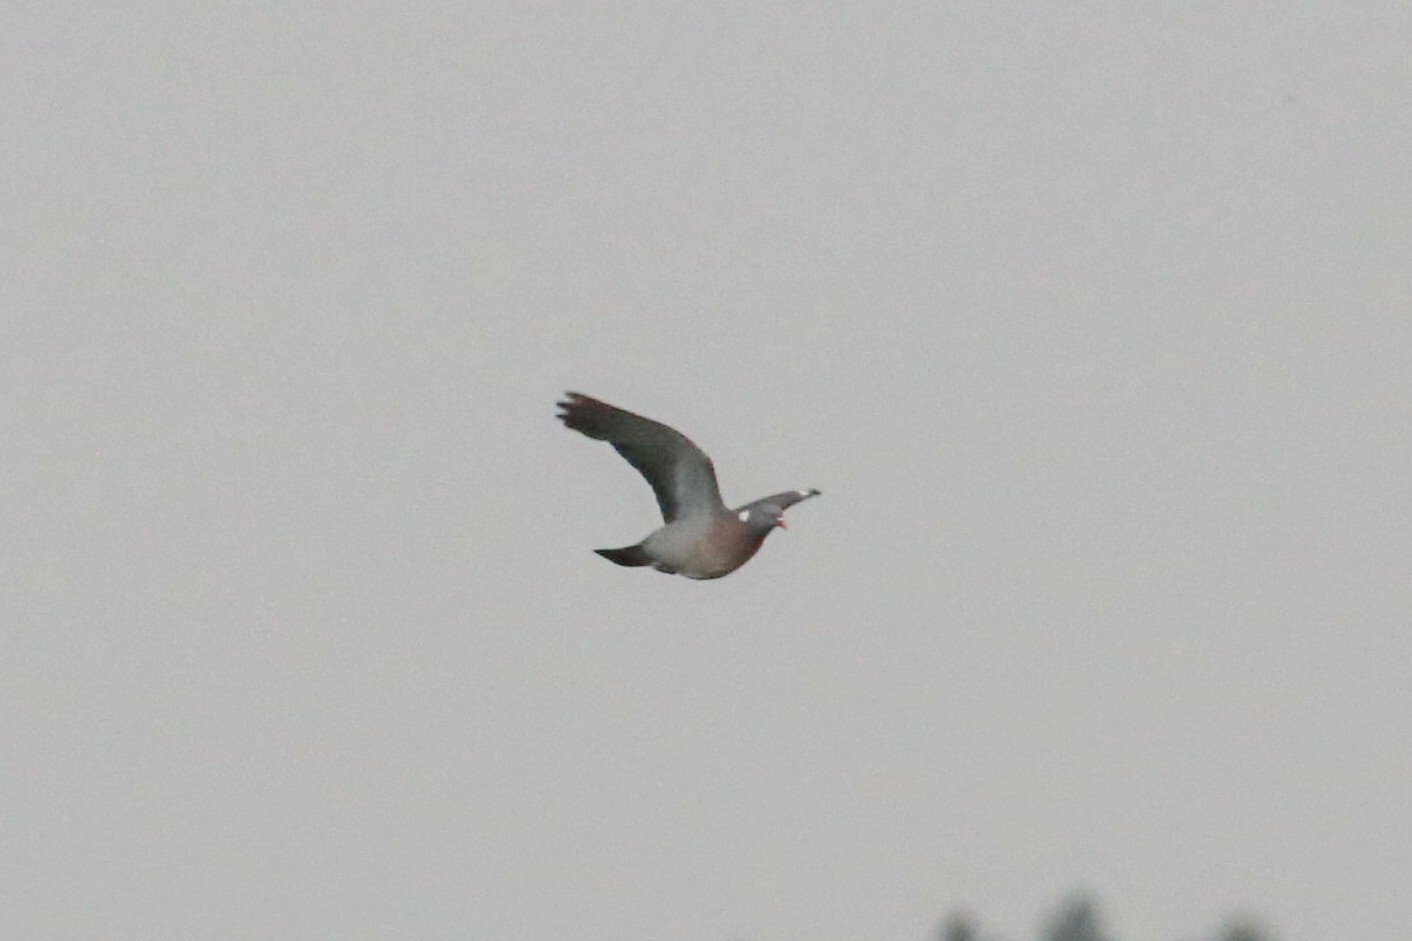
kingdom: Animalia
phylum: Chordata
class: Aves
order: Columbiformes
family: Columbidae
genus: Columba
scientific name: Columba palumbus
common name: Common wood pigeon
